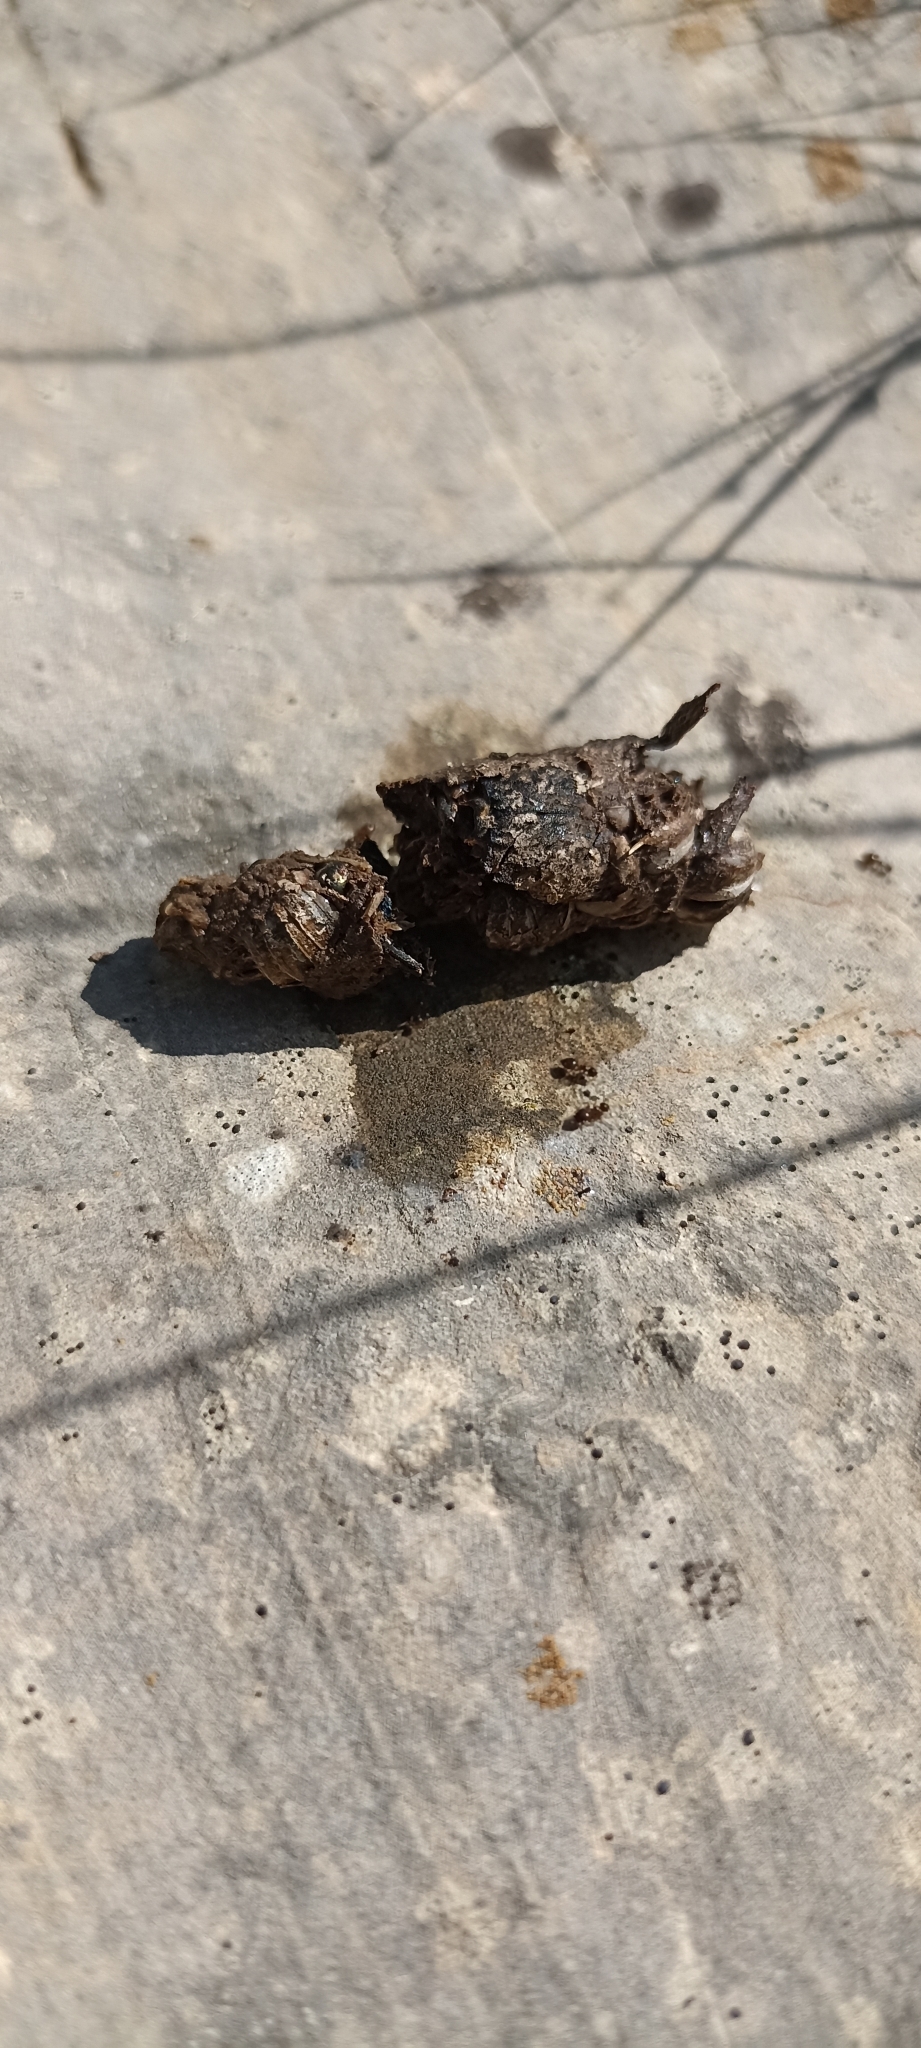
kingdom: Animalia
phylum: Chordata
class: Squamata
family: Lacertidae
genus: Timon
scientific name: Timon lepidus
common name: Ocellated lizard
